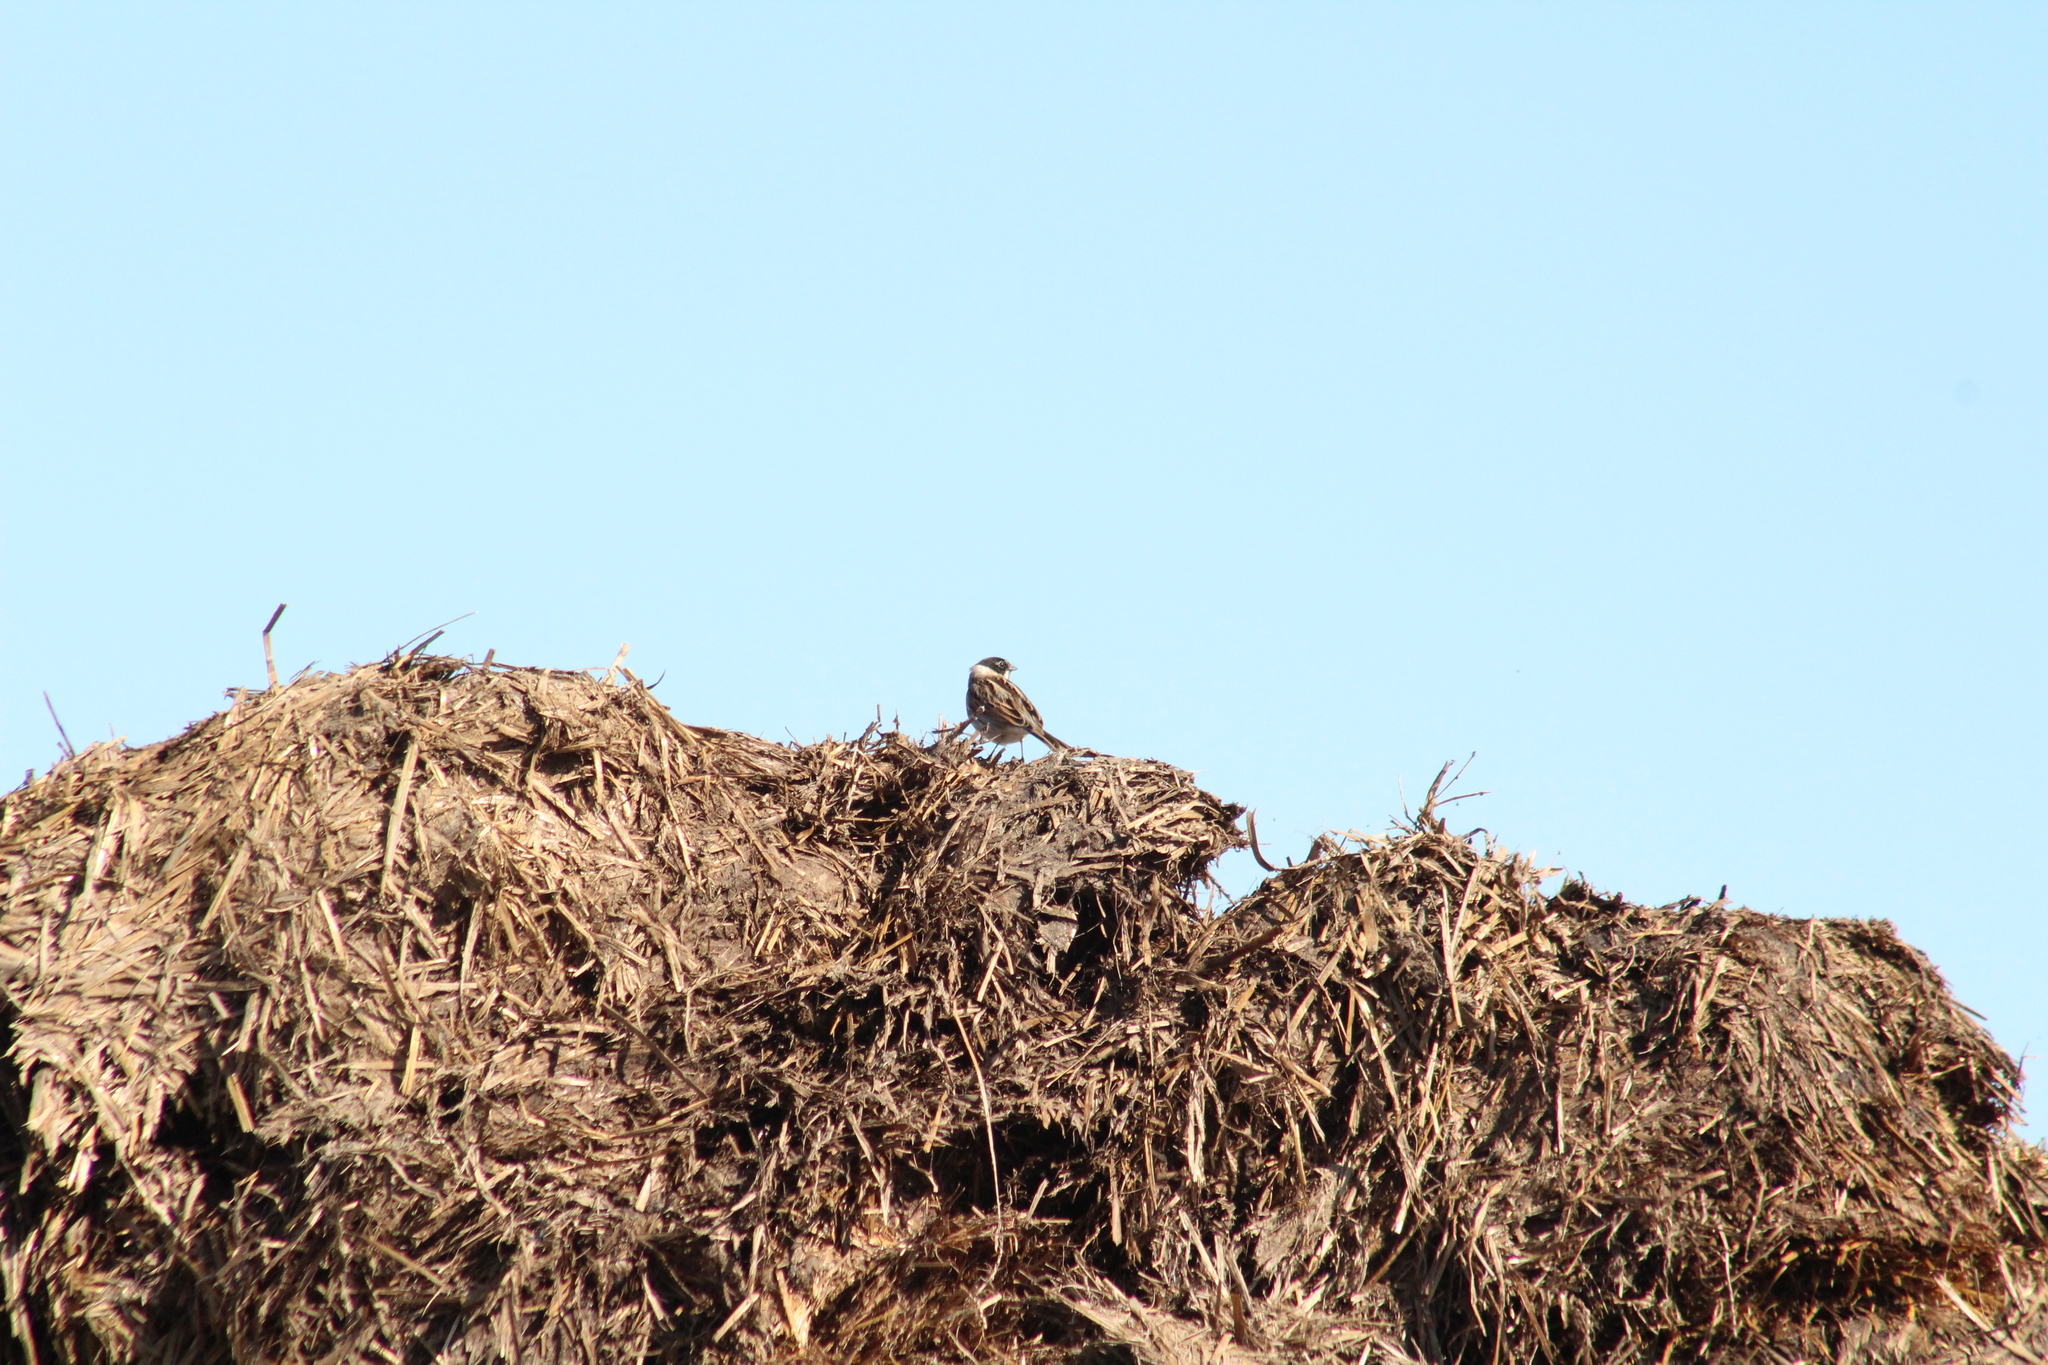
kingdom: Animalia
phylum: Chordata
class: Aves
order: Passeriformes
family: Emberizidae
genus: Emberiza
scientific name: Emberiza schoeniclus
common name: Reed bunting
